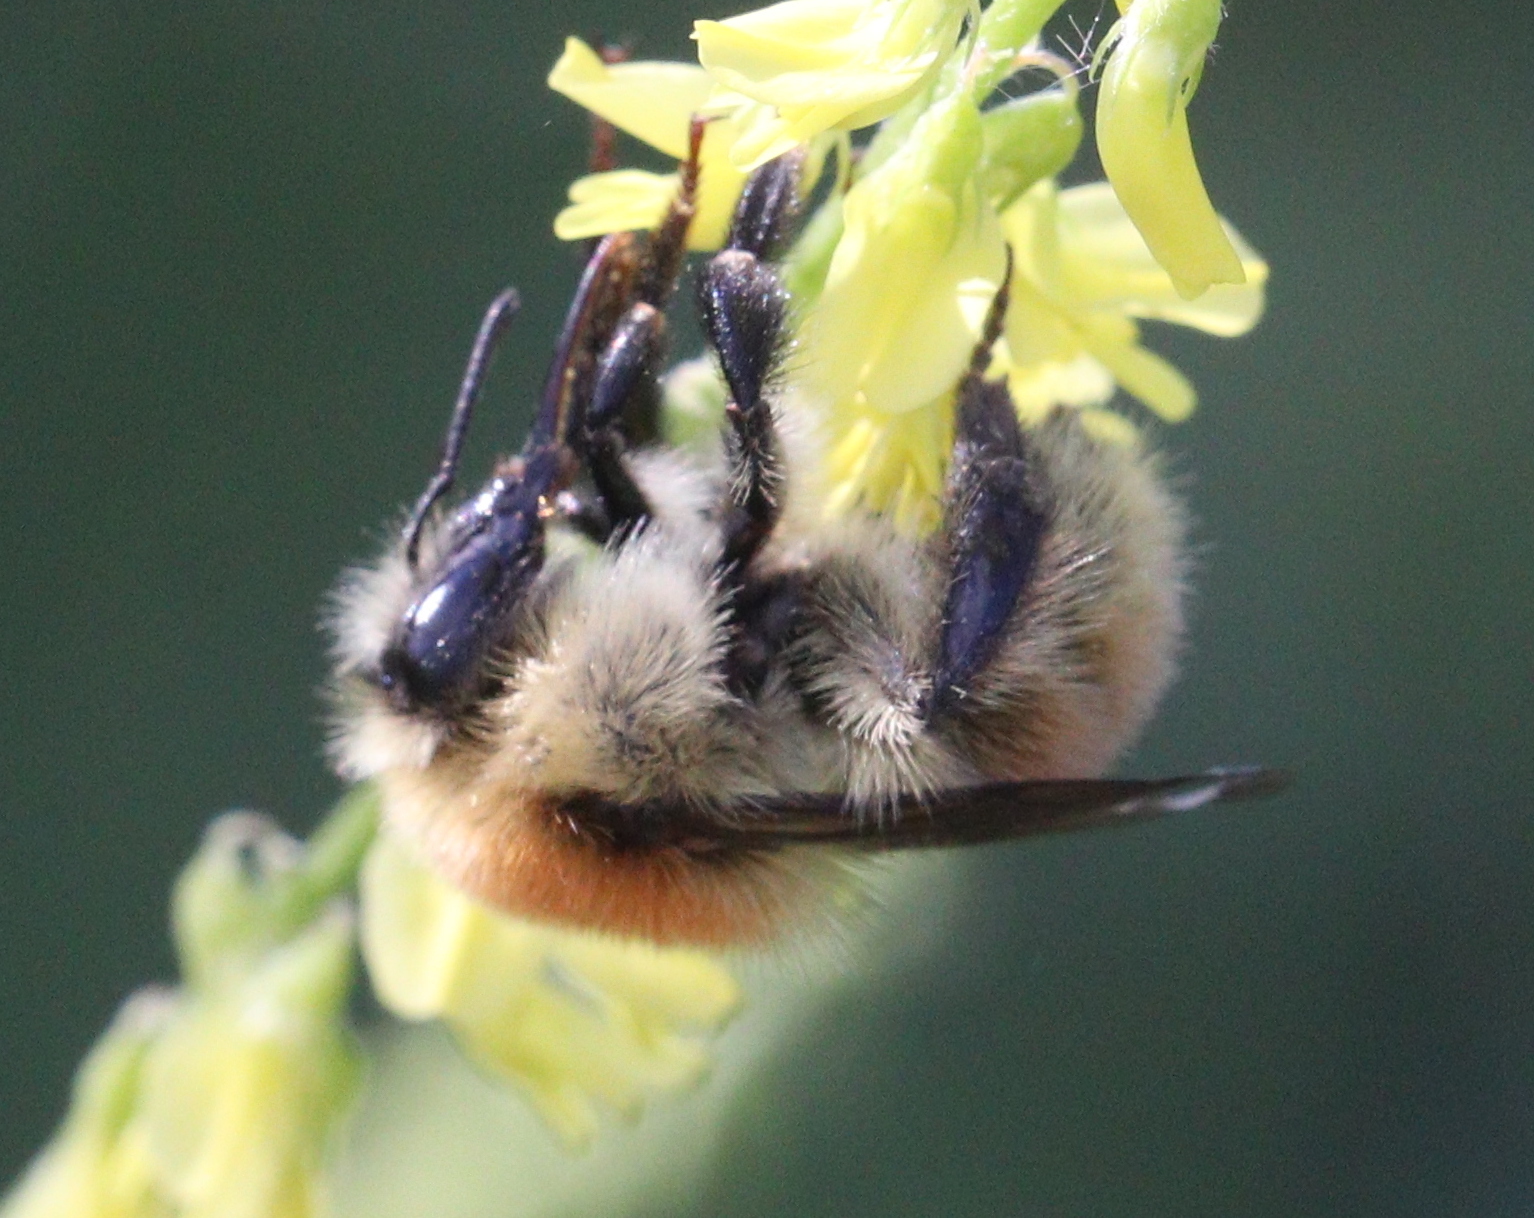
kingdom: Animalia
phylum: Arthropoda
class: Insecta
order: Hymenoptera
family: Apidae
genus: Bombus
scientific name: Bombus muscorum
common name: Moss carder-bee
